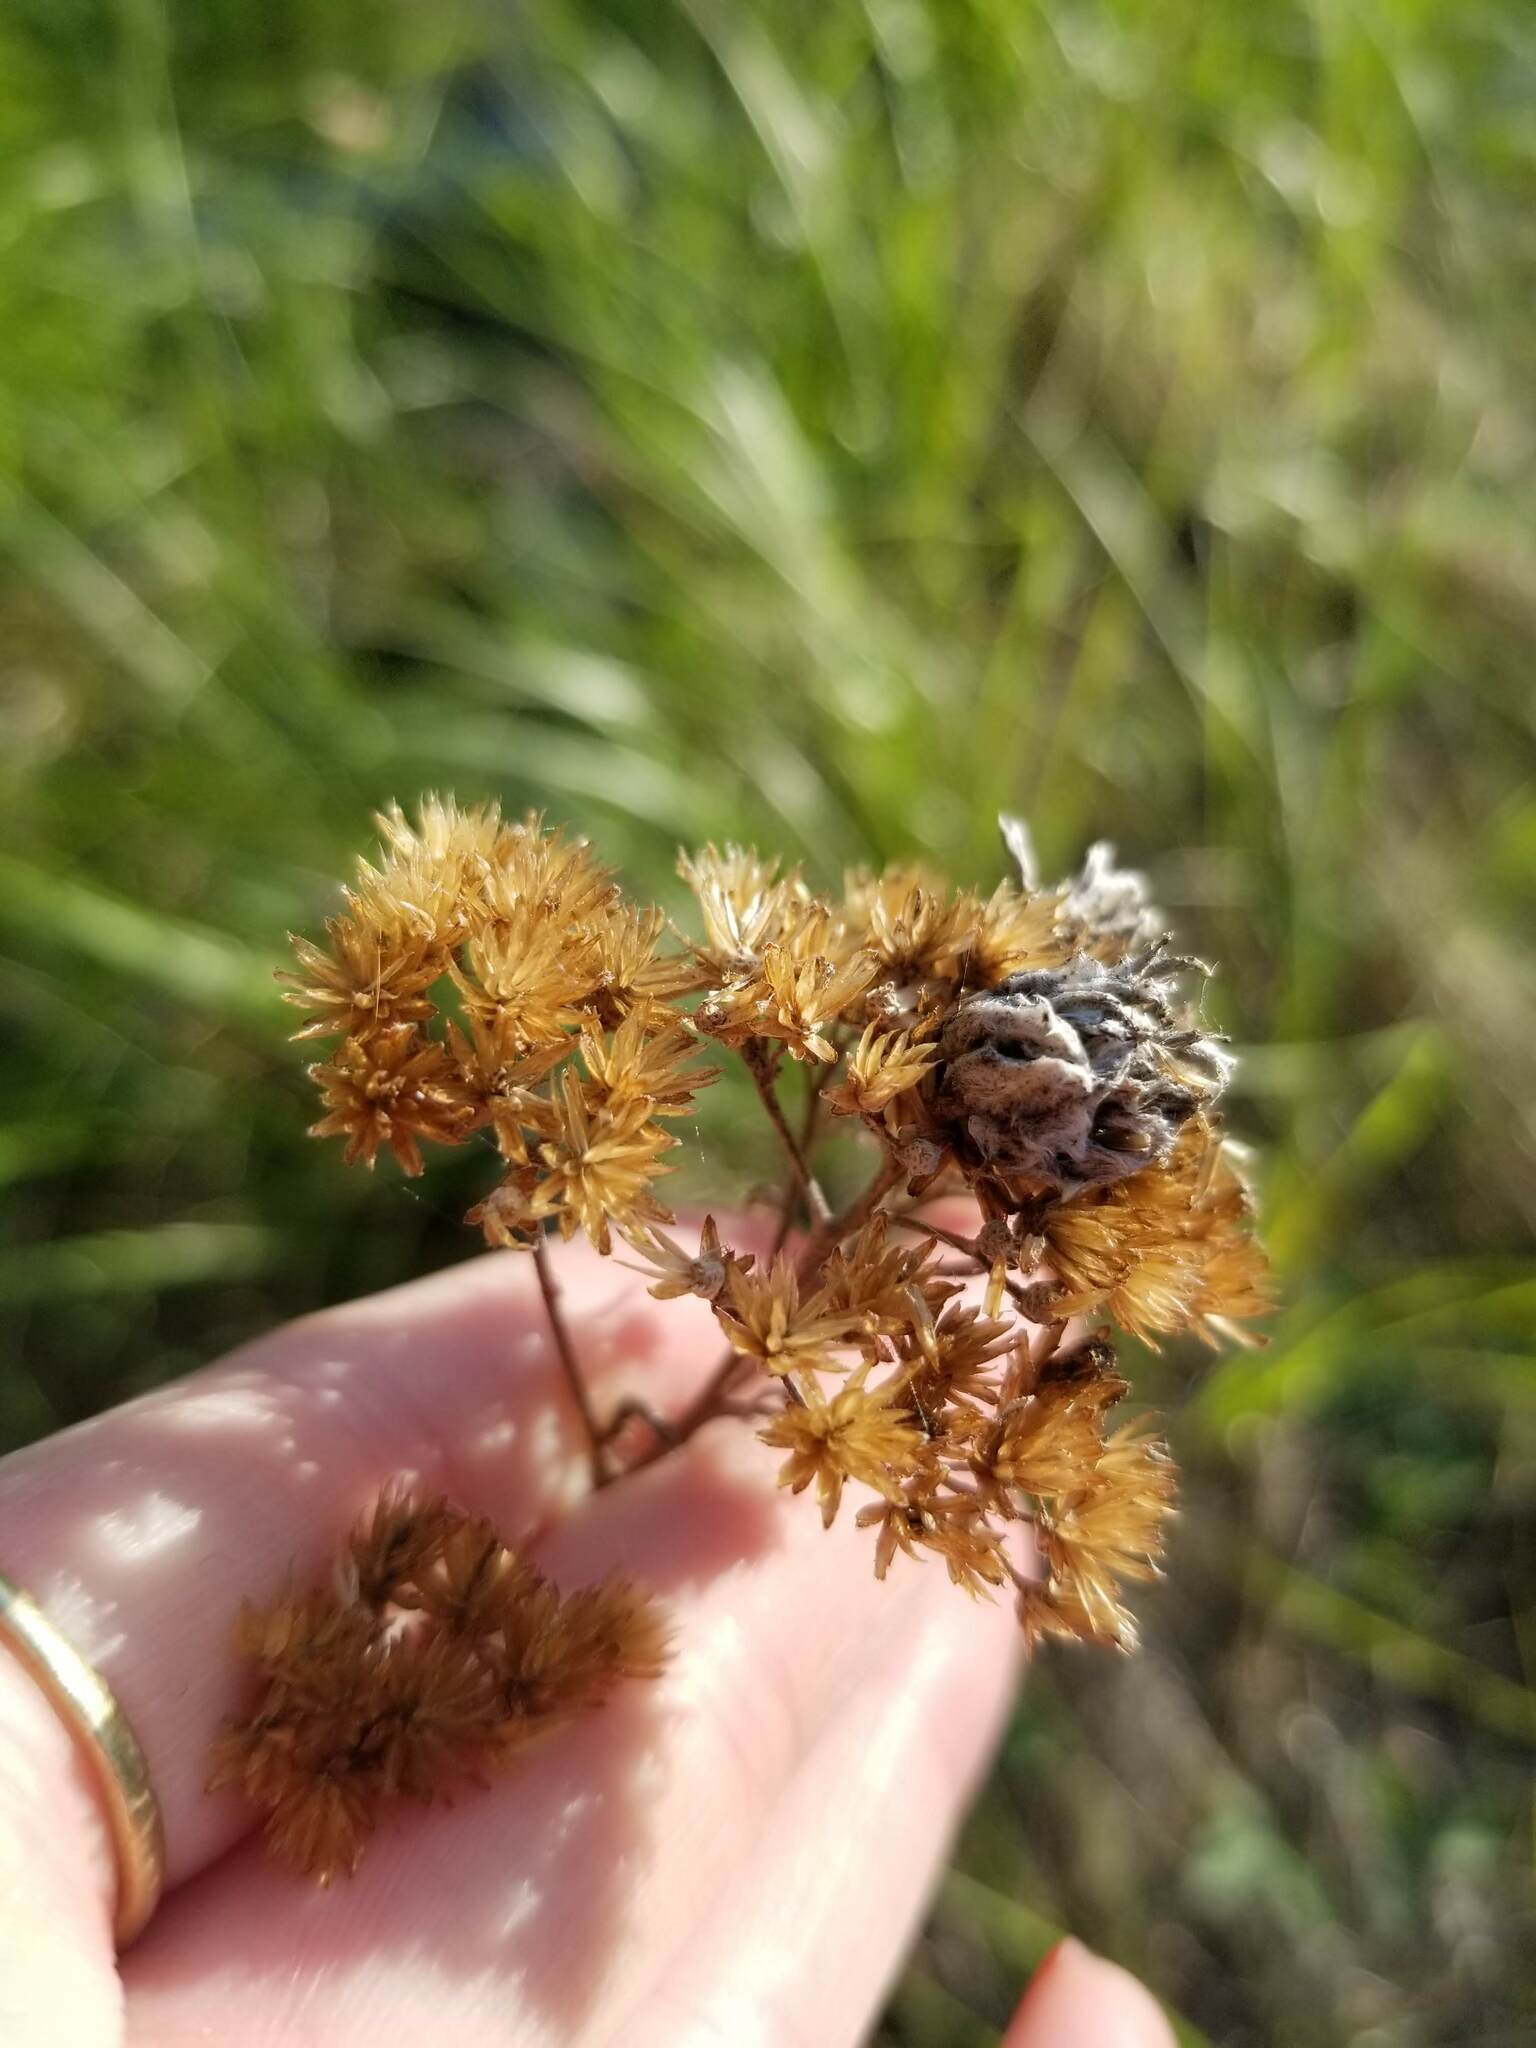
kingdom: Animalia
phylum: Arthropoda
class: Arachnida
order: Trombidiformes
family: Eriophyidae
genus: Aceria
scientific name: Aceria kiefferi
